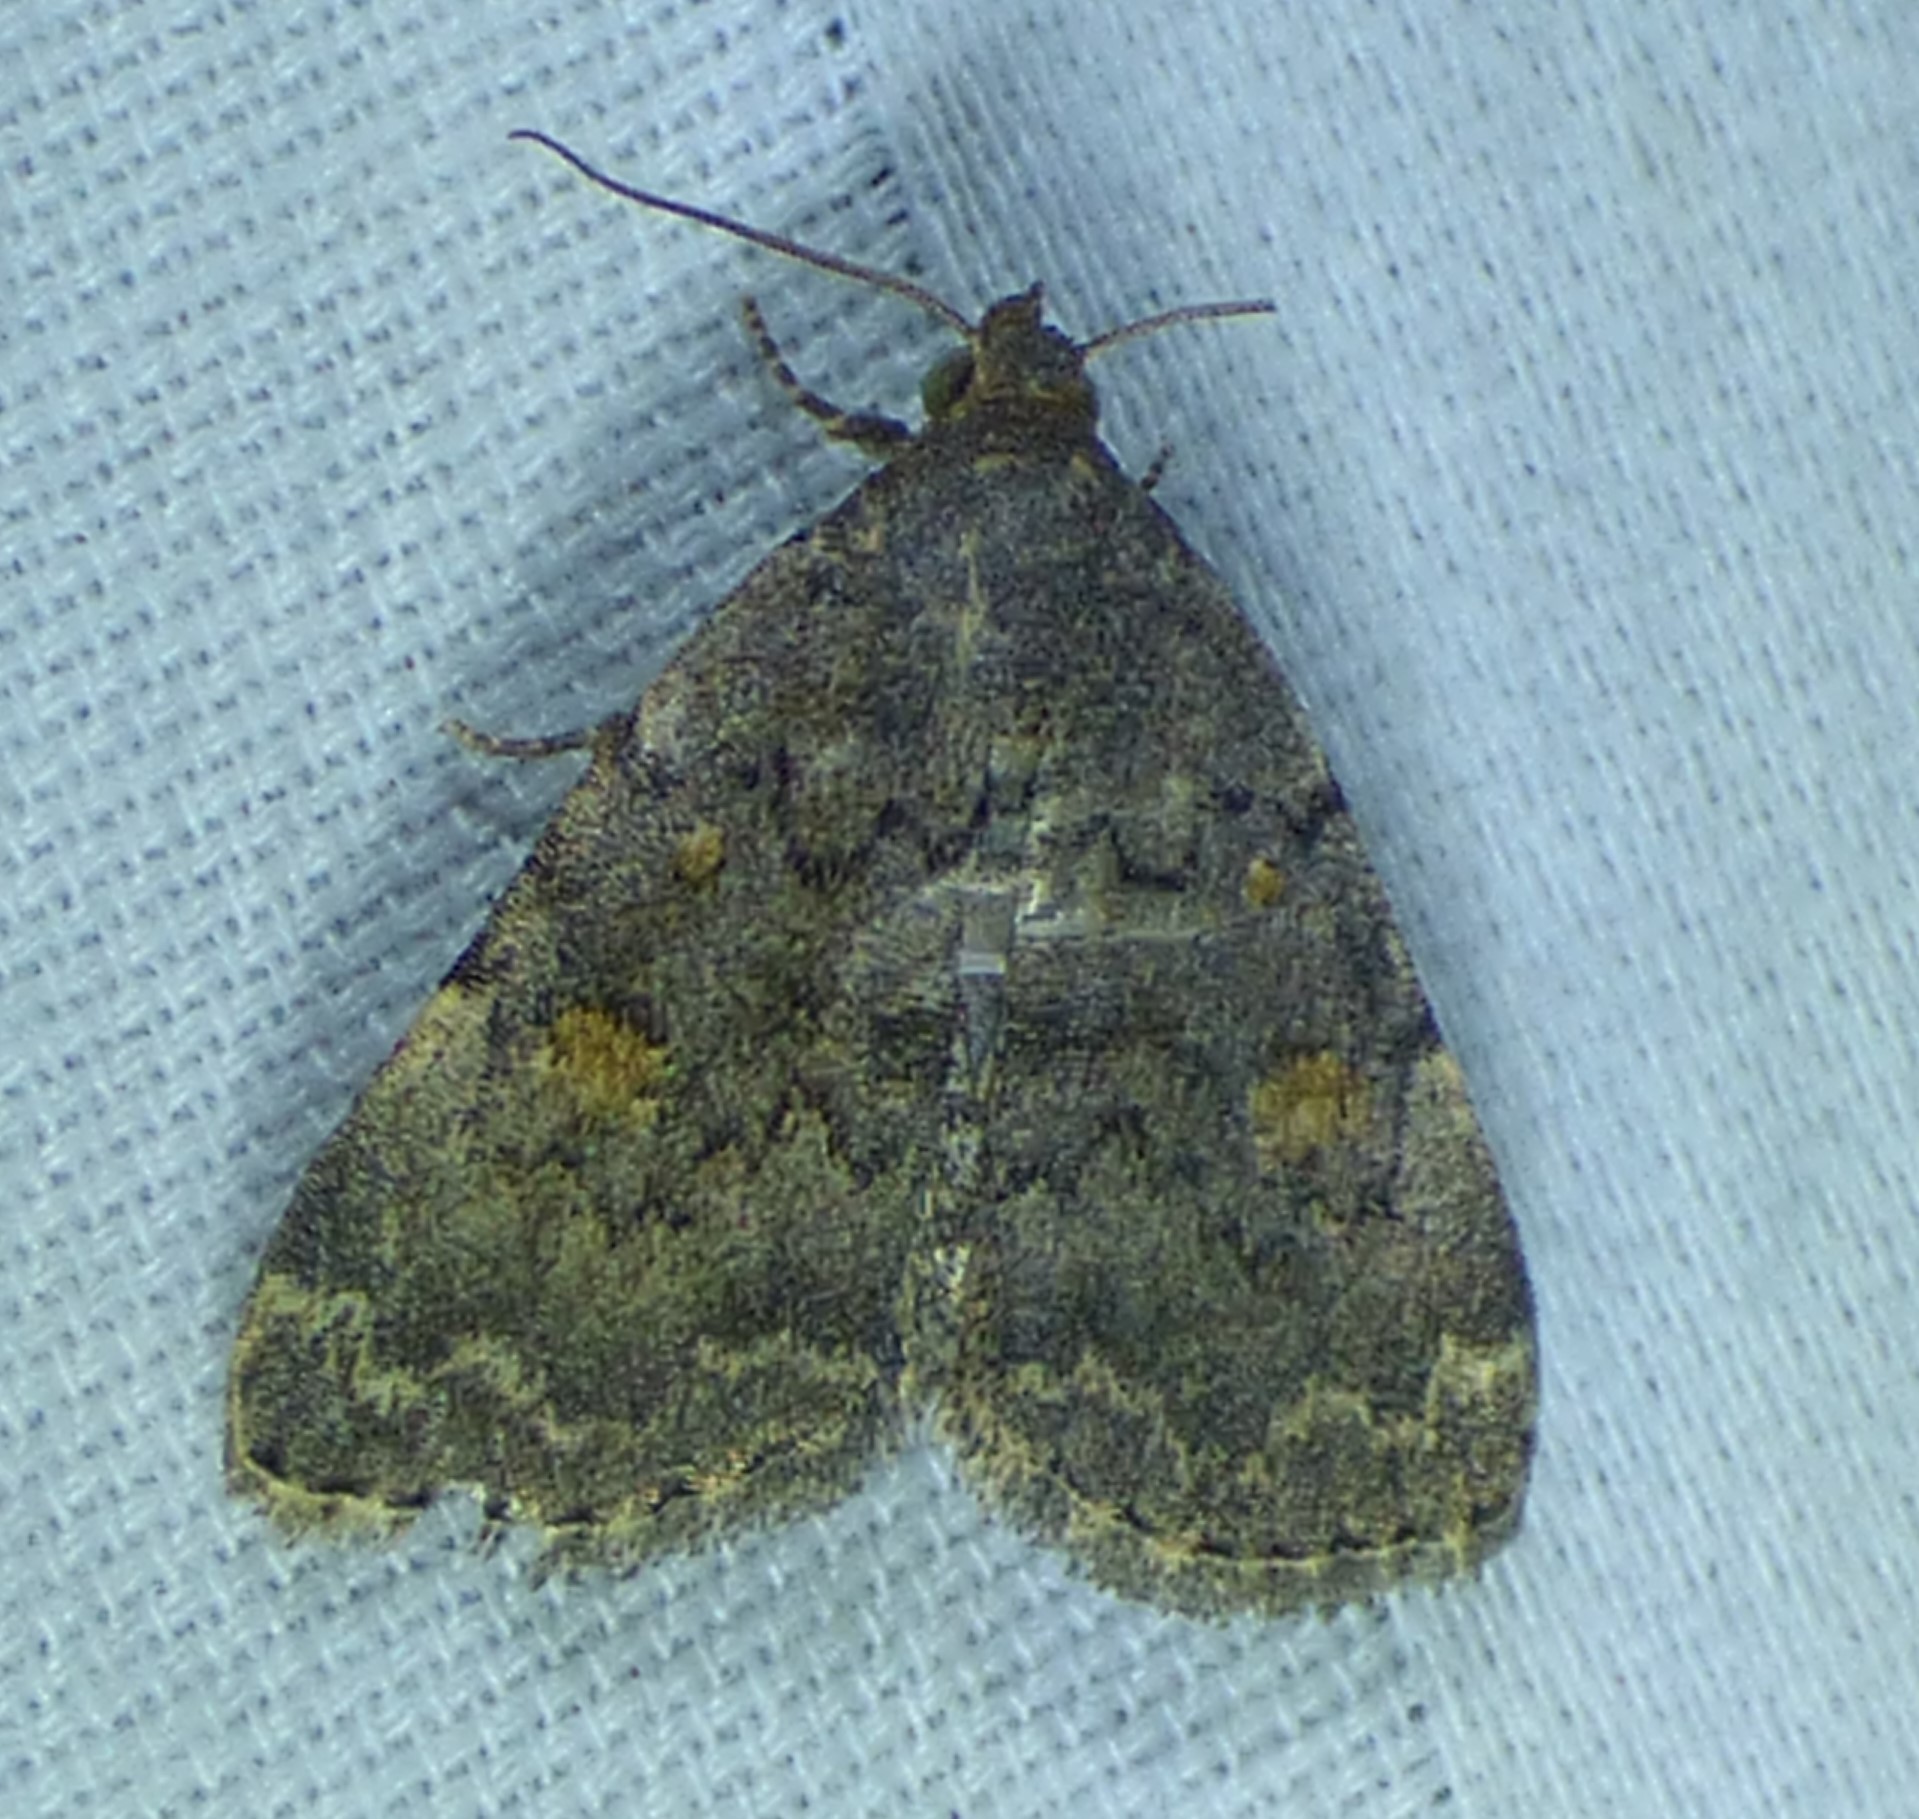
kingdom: Animalia
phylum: Arthropoda
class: Insecta
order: Lepidoptera
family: Erebidae
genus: Idia
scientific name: Idia aemula
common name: Common idia moth
